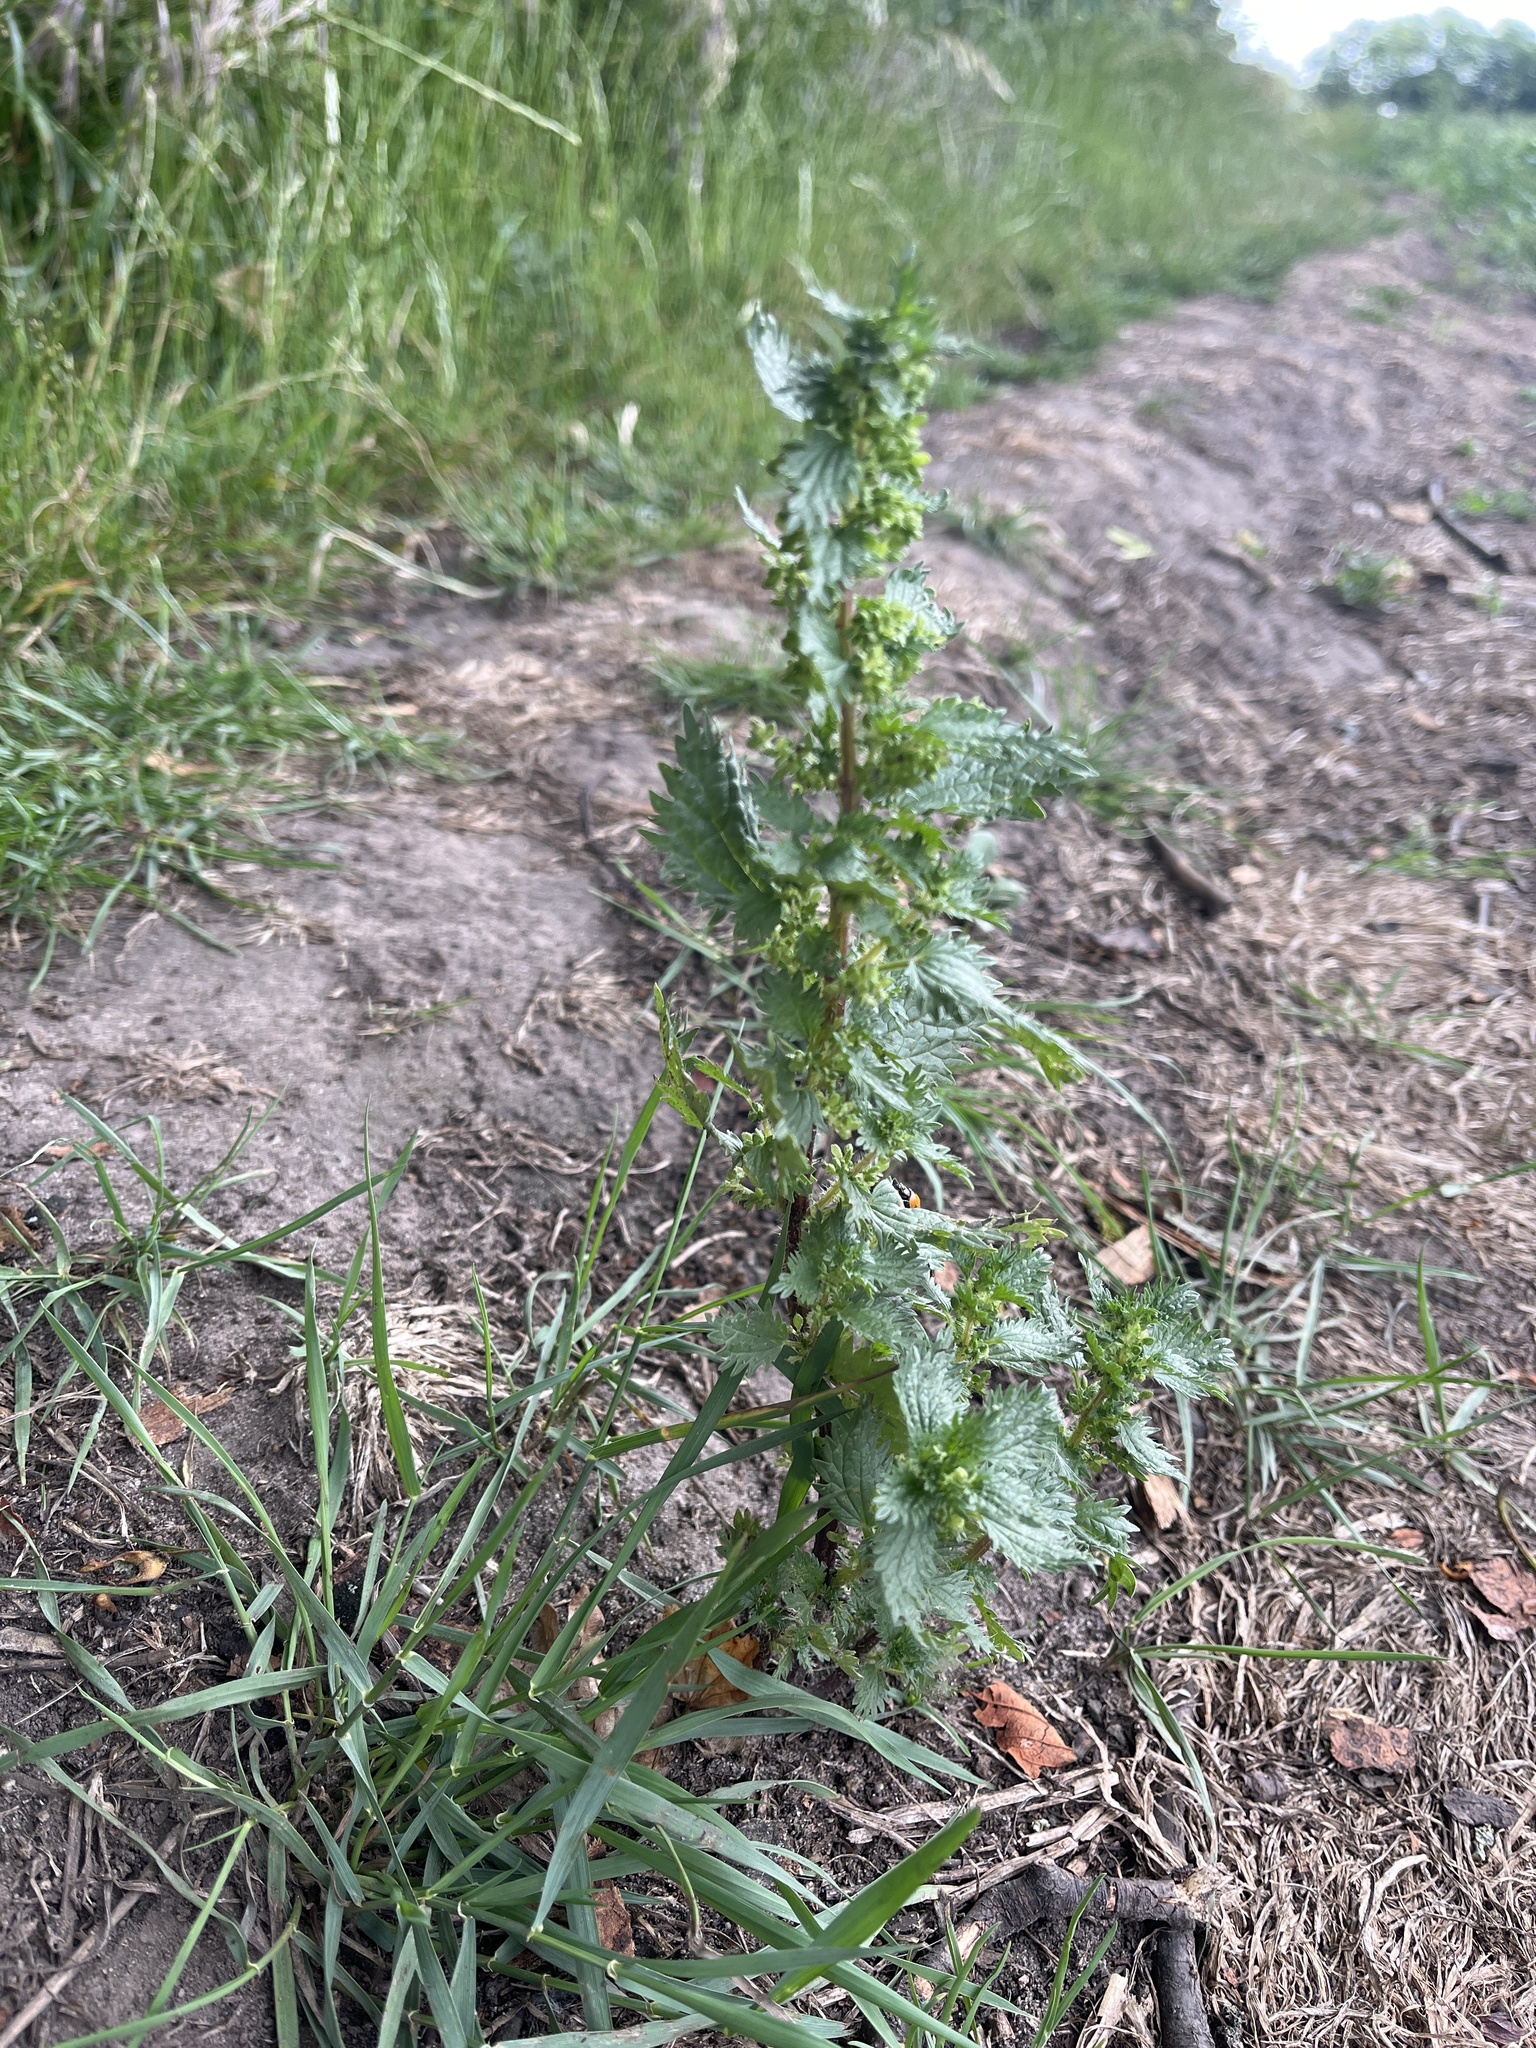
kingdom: Plantae
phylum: Tracheophyta
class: Magnoliopsida
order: Rosales
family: Urticaceae
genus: Urtica
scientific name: Urtica urens
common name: Dwarf nettle
